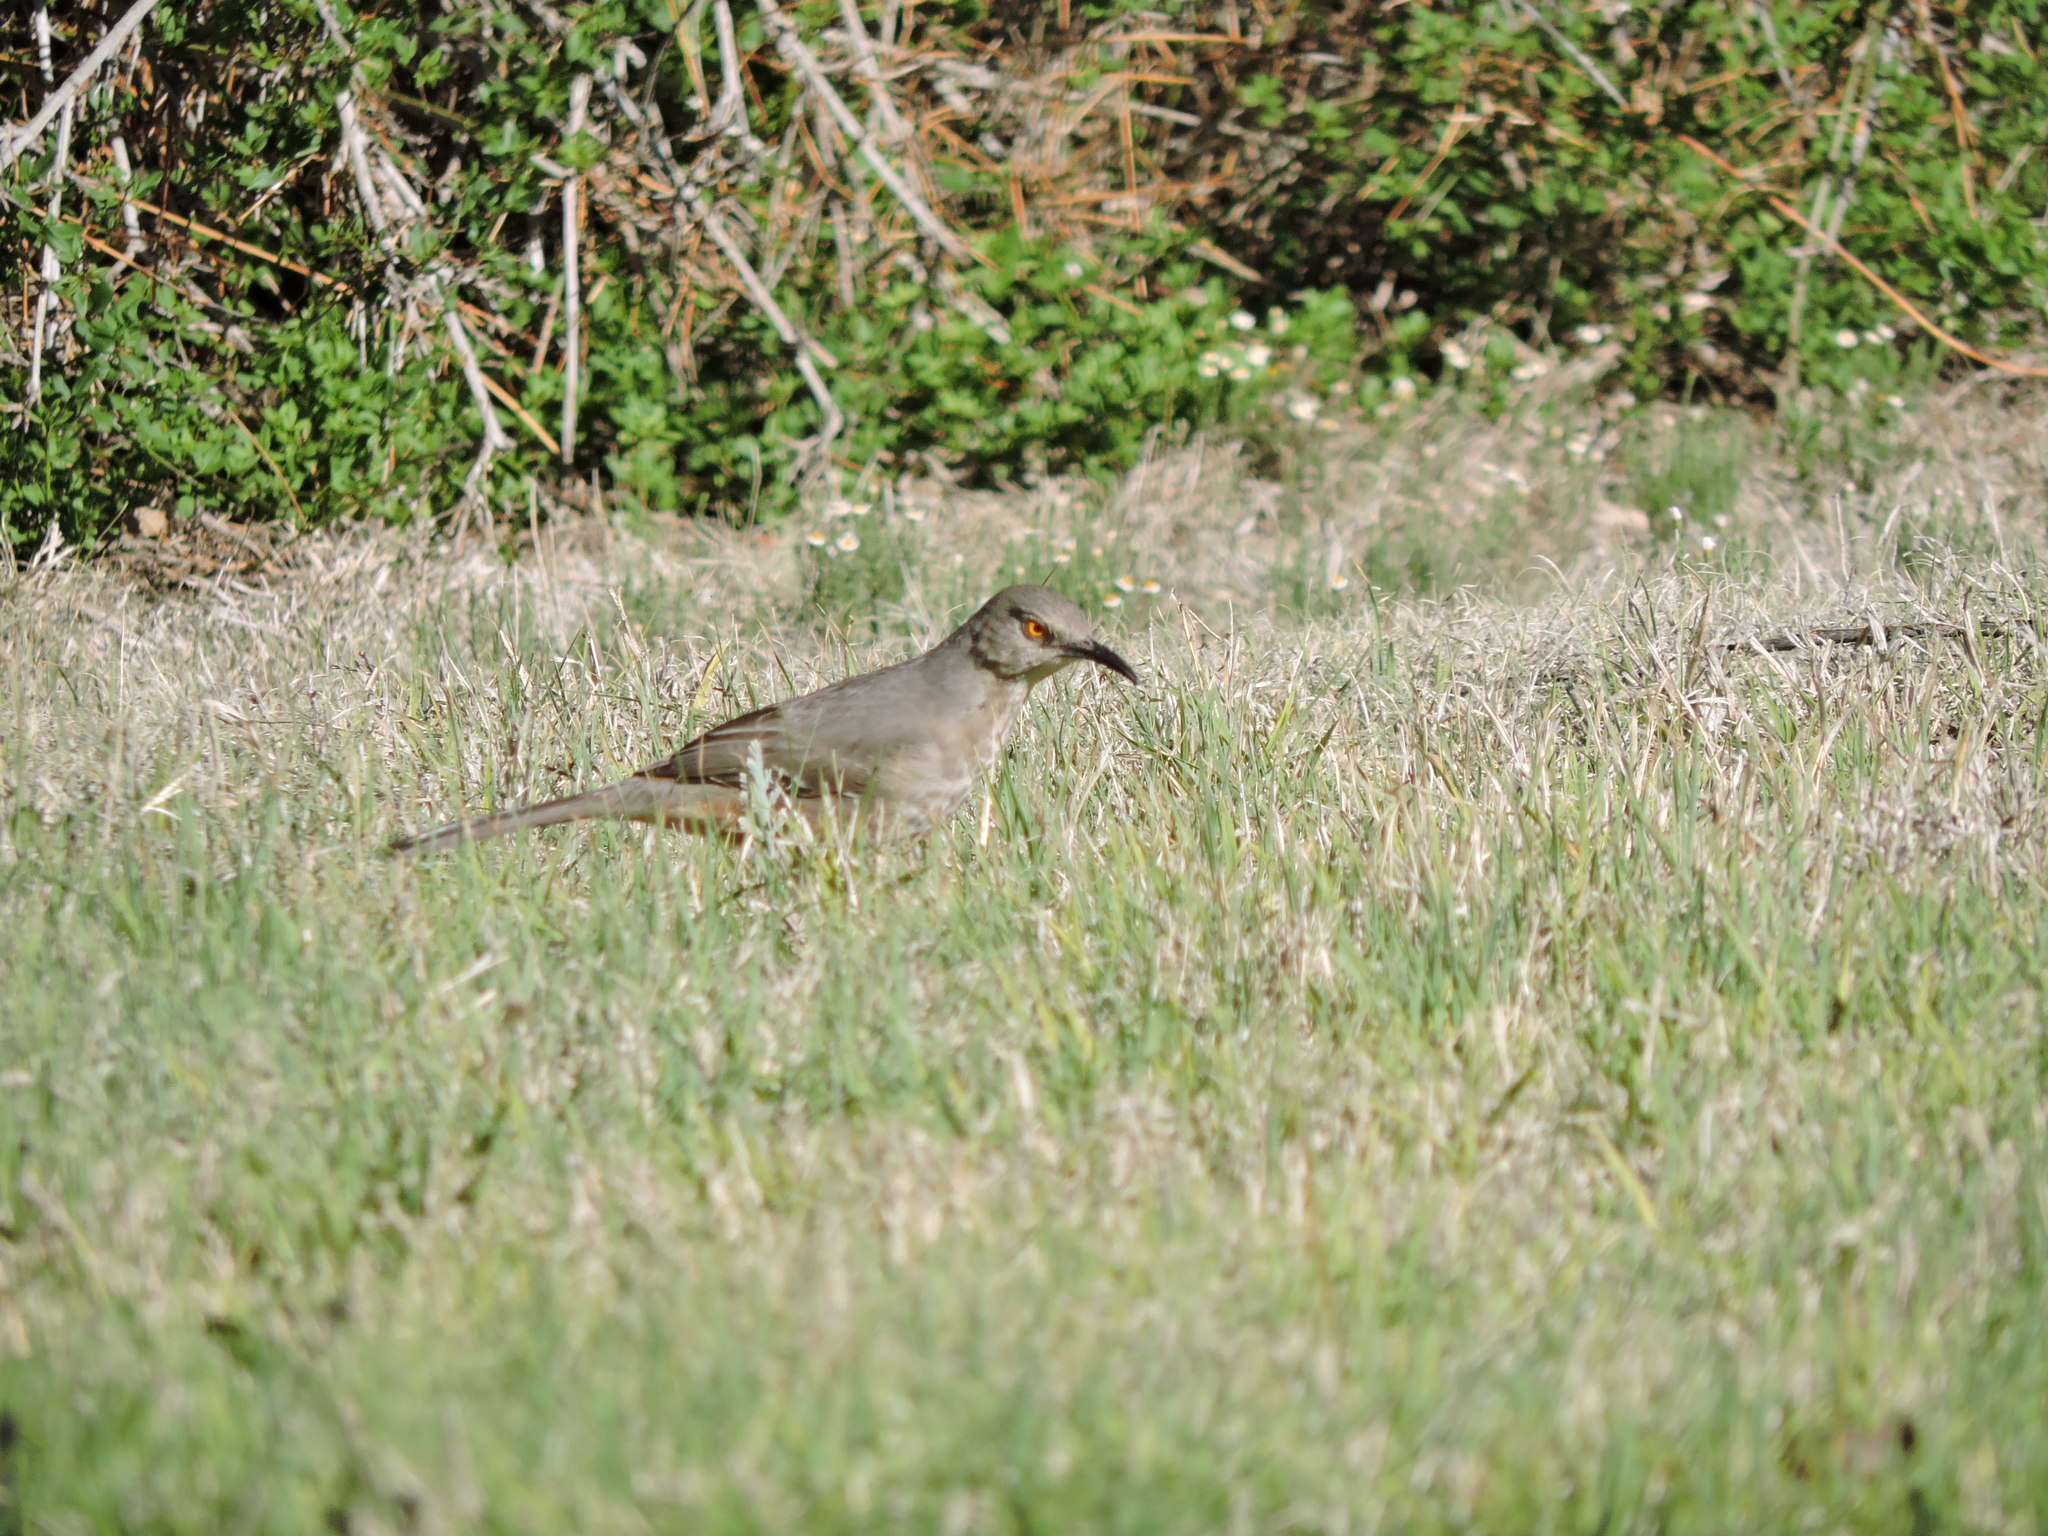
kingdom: Animalia
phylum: Chordata
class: Aves
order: Passeriformes
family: Mimidae
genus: Toxostoma
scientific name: Toxostoma curvirostre
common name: Curve-billed thrasher
